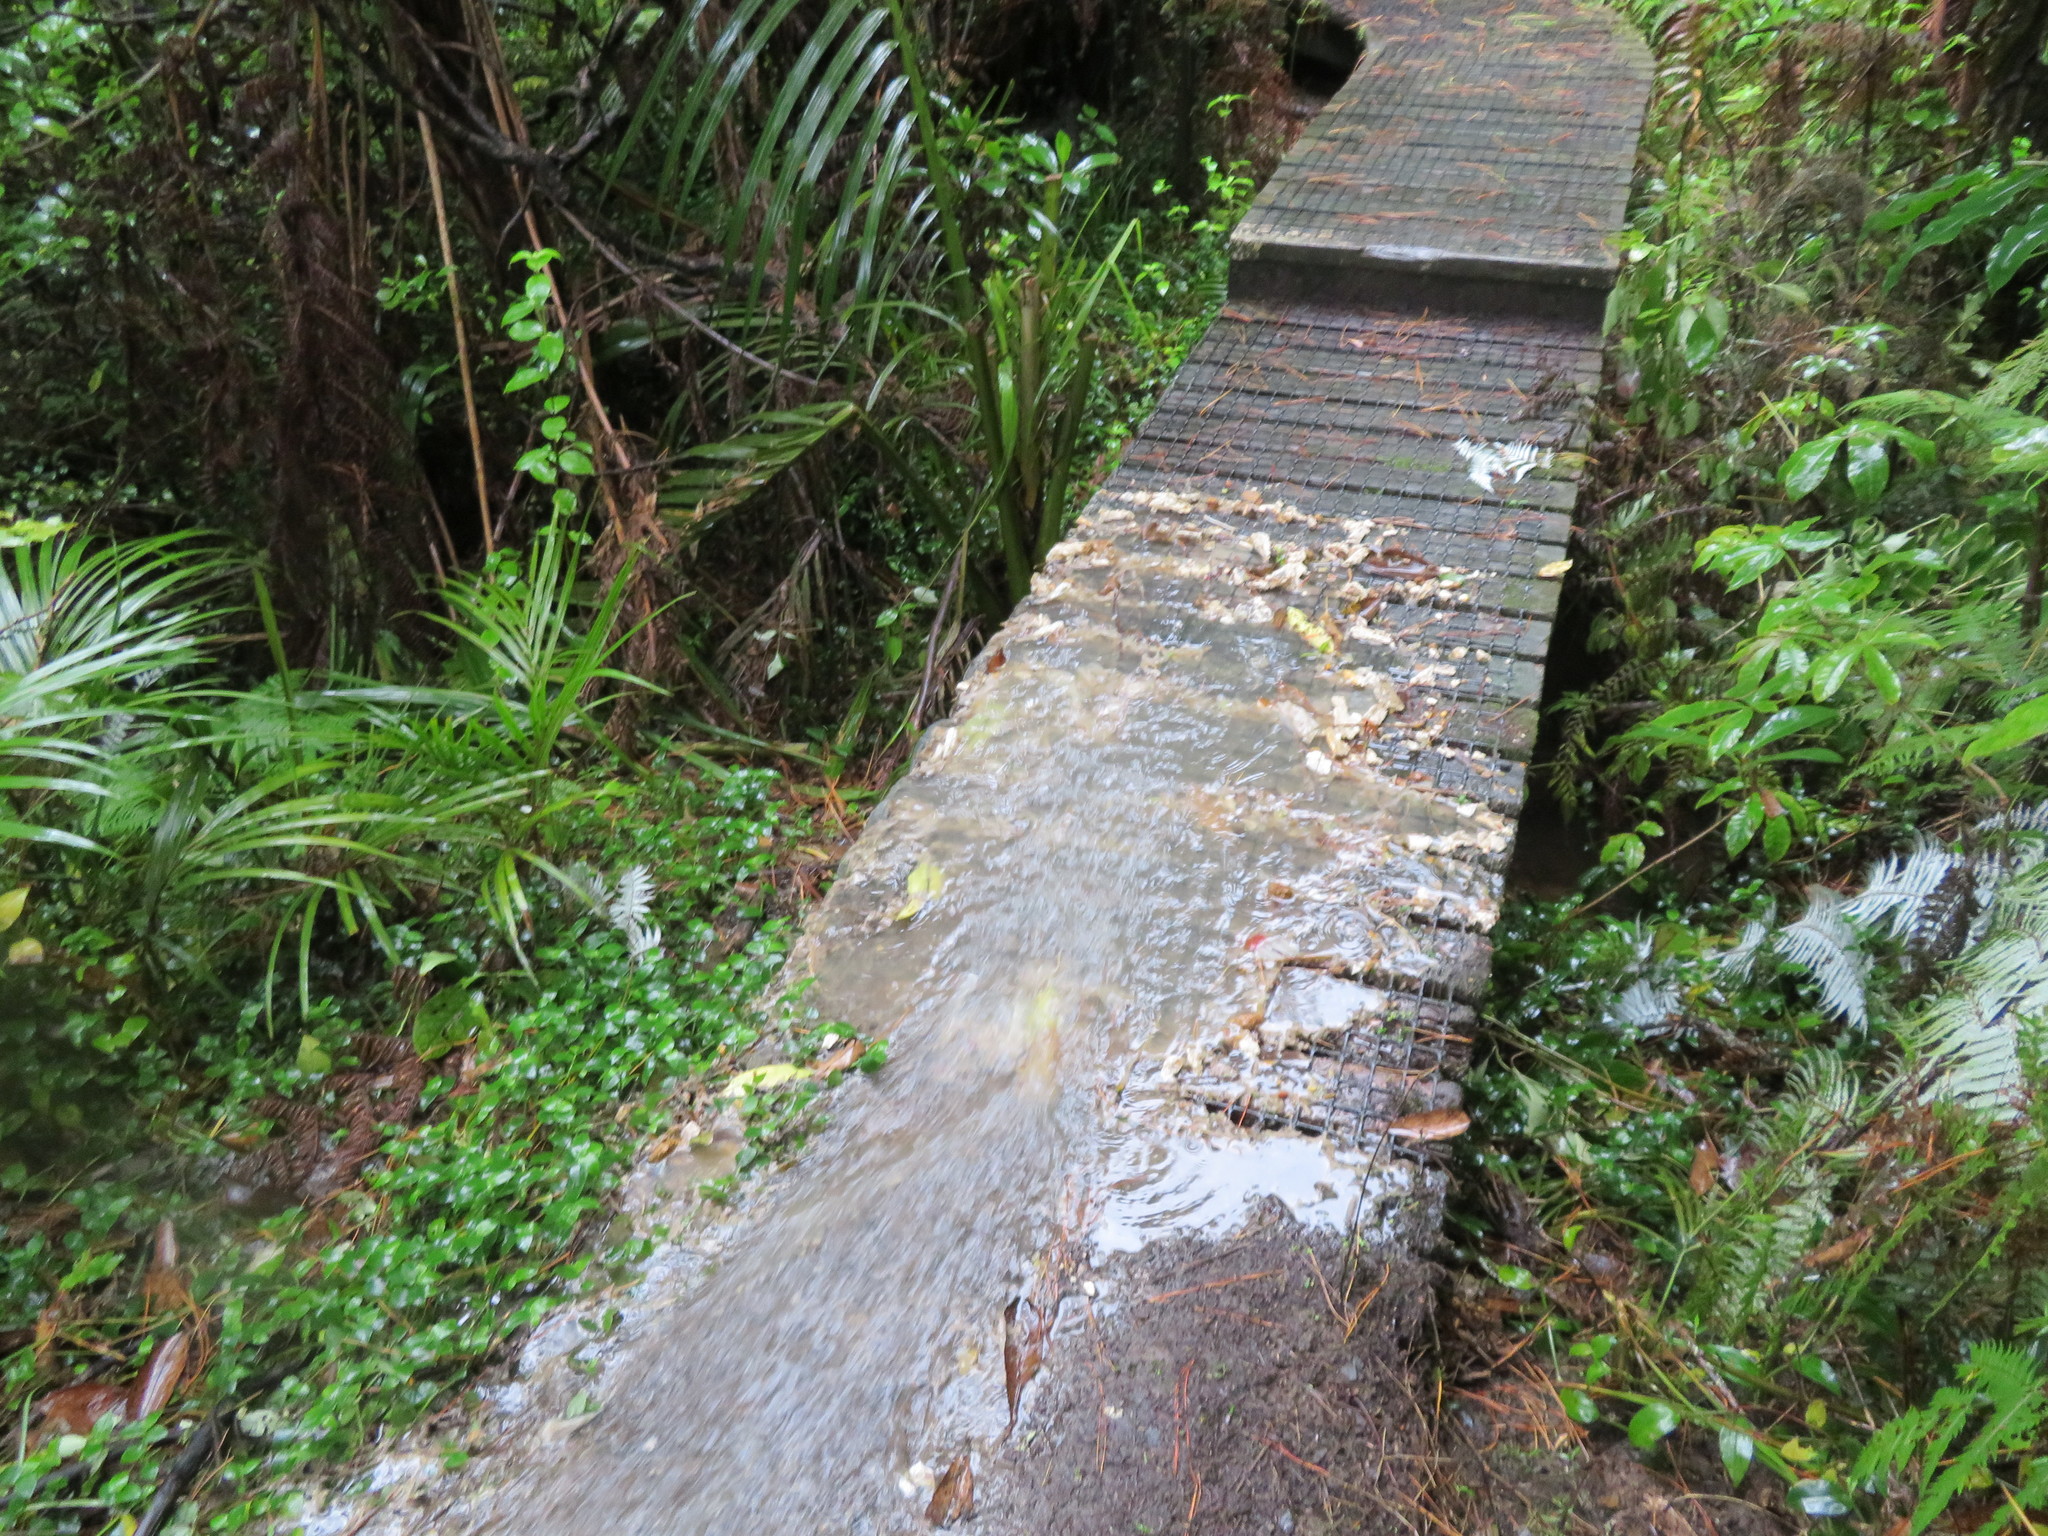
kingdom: Plantae
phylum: Tracheophyta
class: Magnoliopsida
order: Apiales
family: Araliaceae
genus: Schefflera
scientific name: Schefflera digitata
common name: Pate
